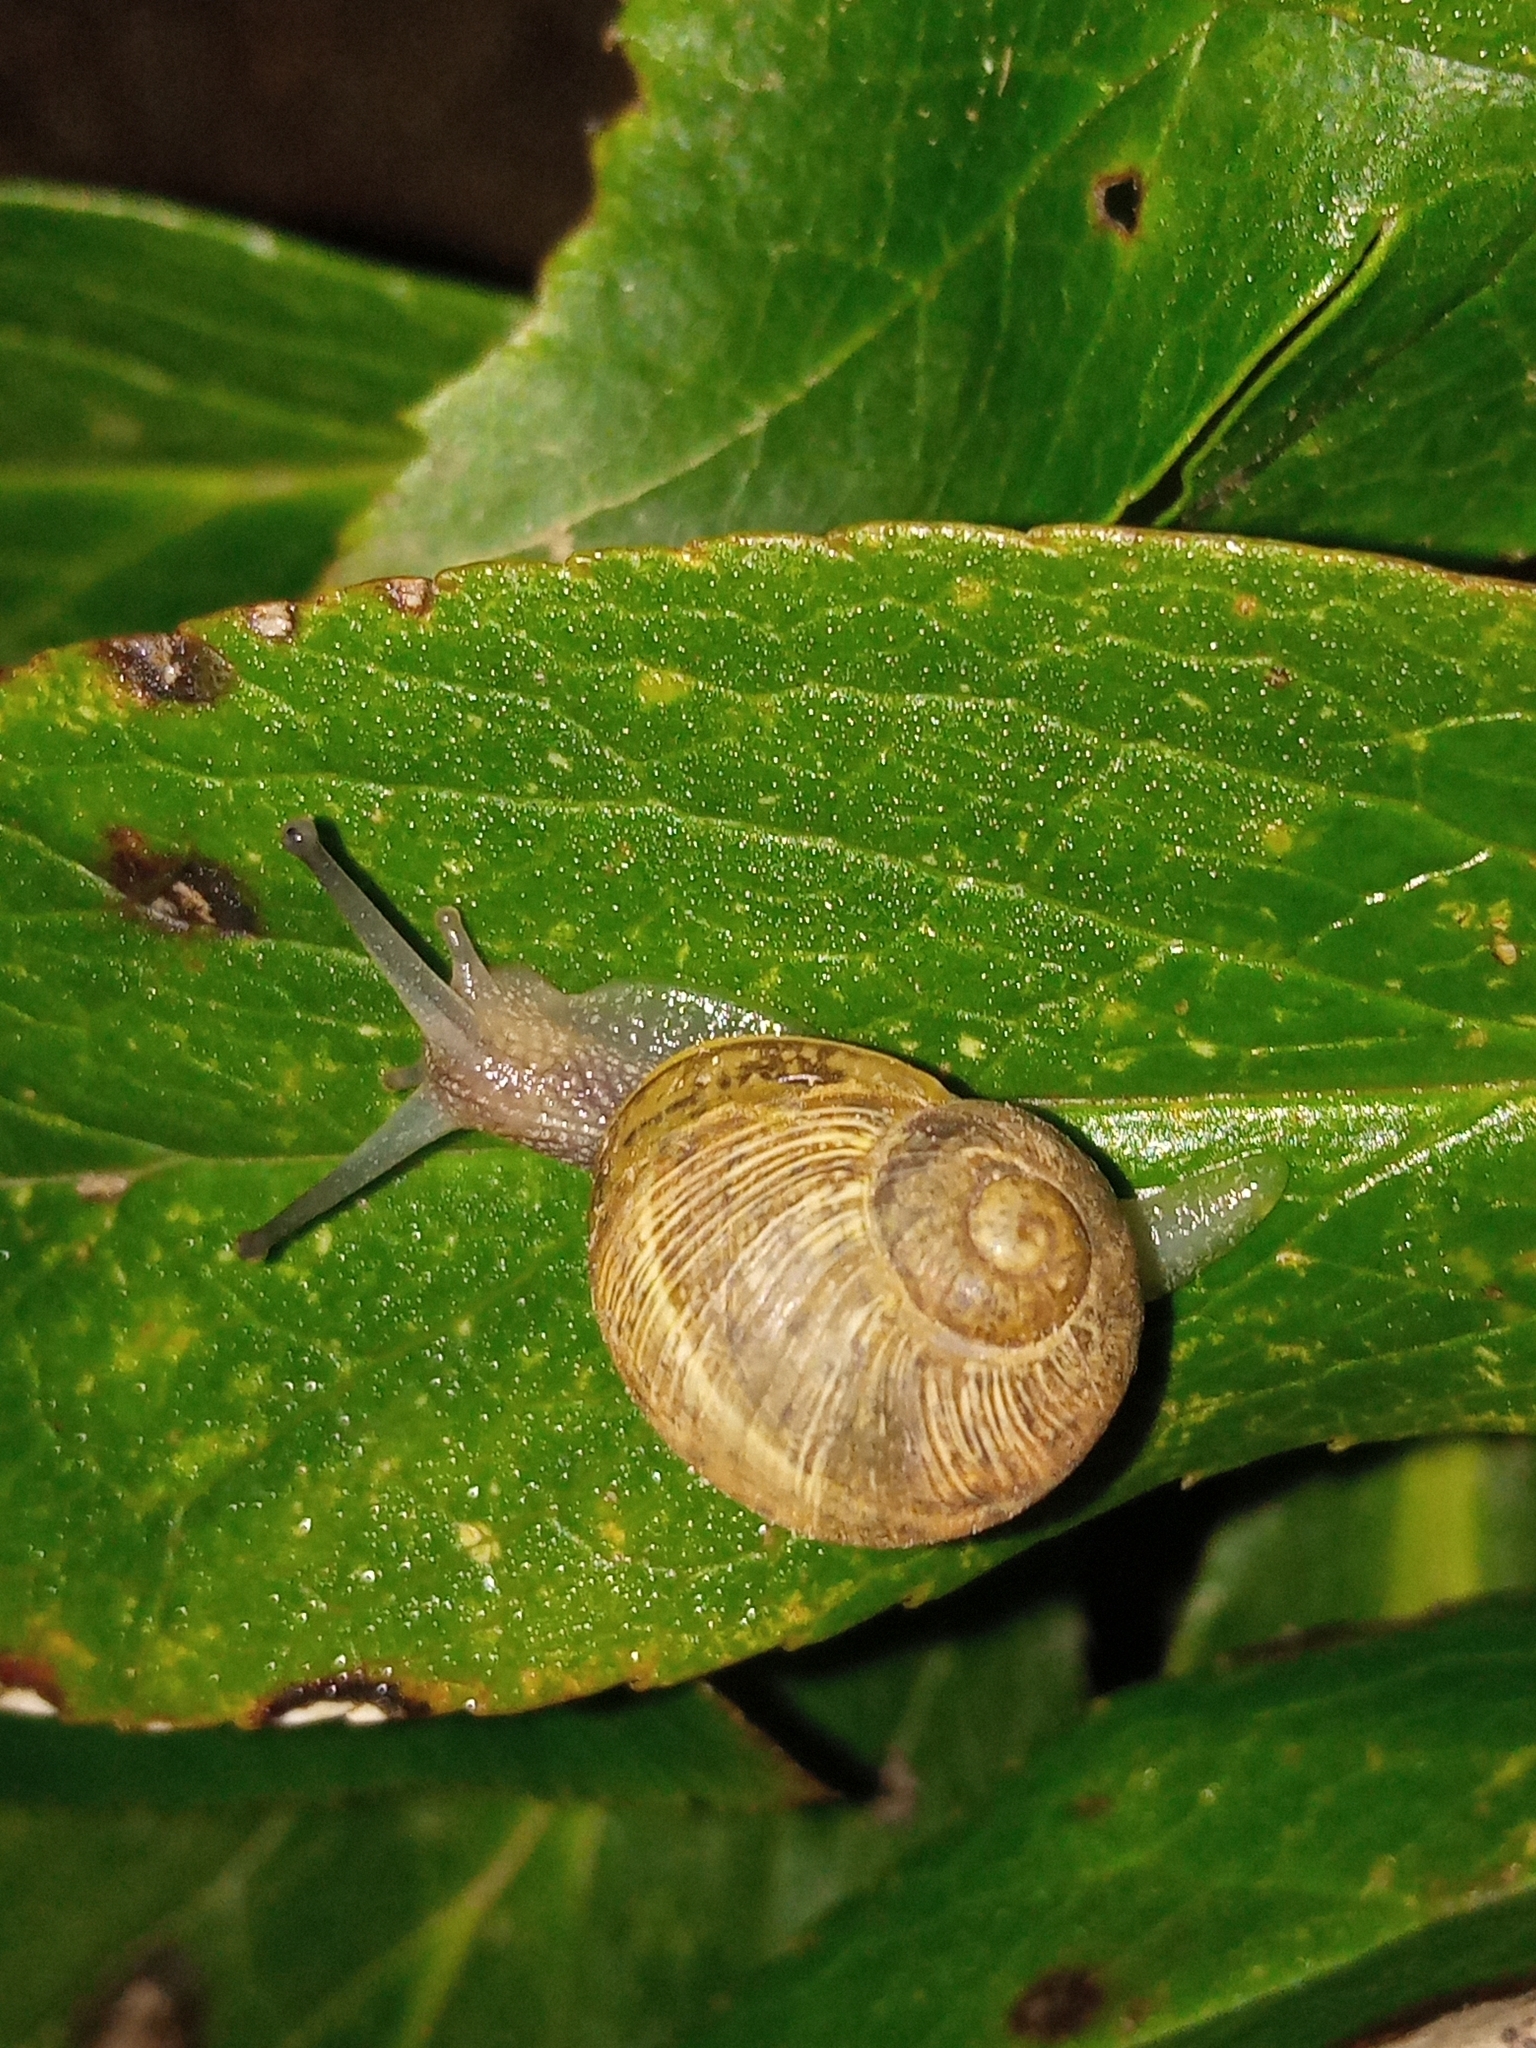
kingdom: Animalia
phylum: Mollusca
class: Gastropoda
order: Stylommatophora
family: Helicidae
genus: Cornu
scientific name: Cornu aspersum
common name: Brown garden snail
